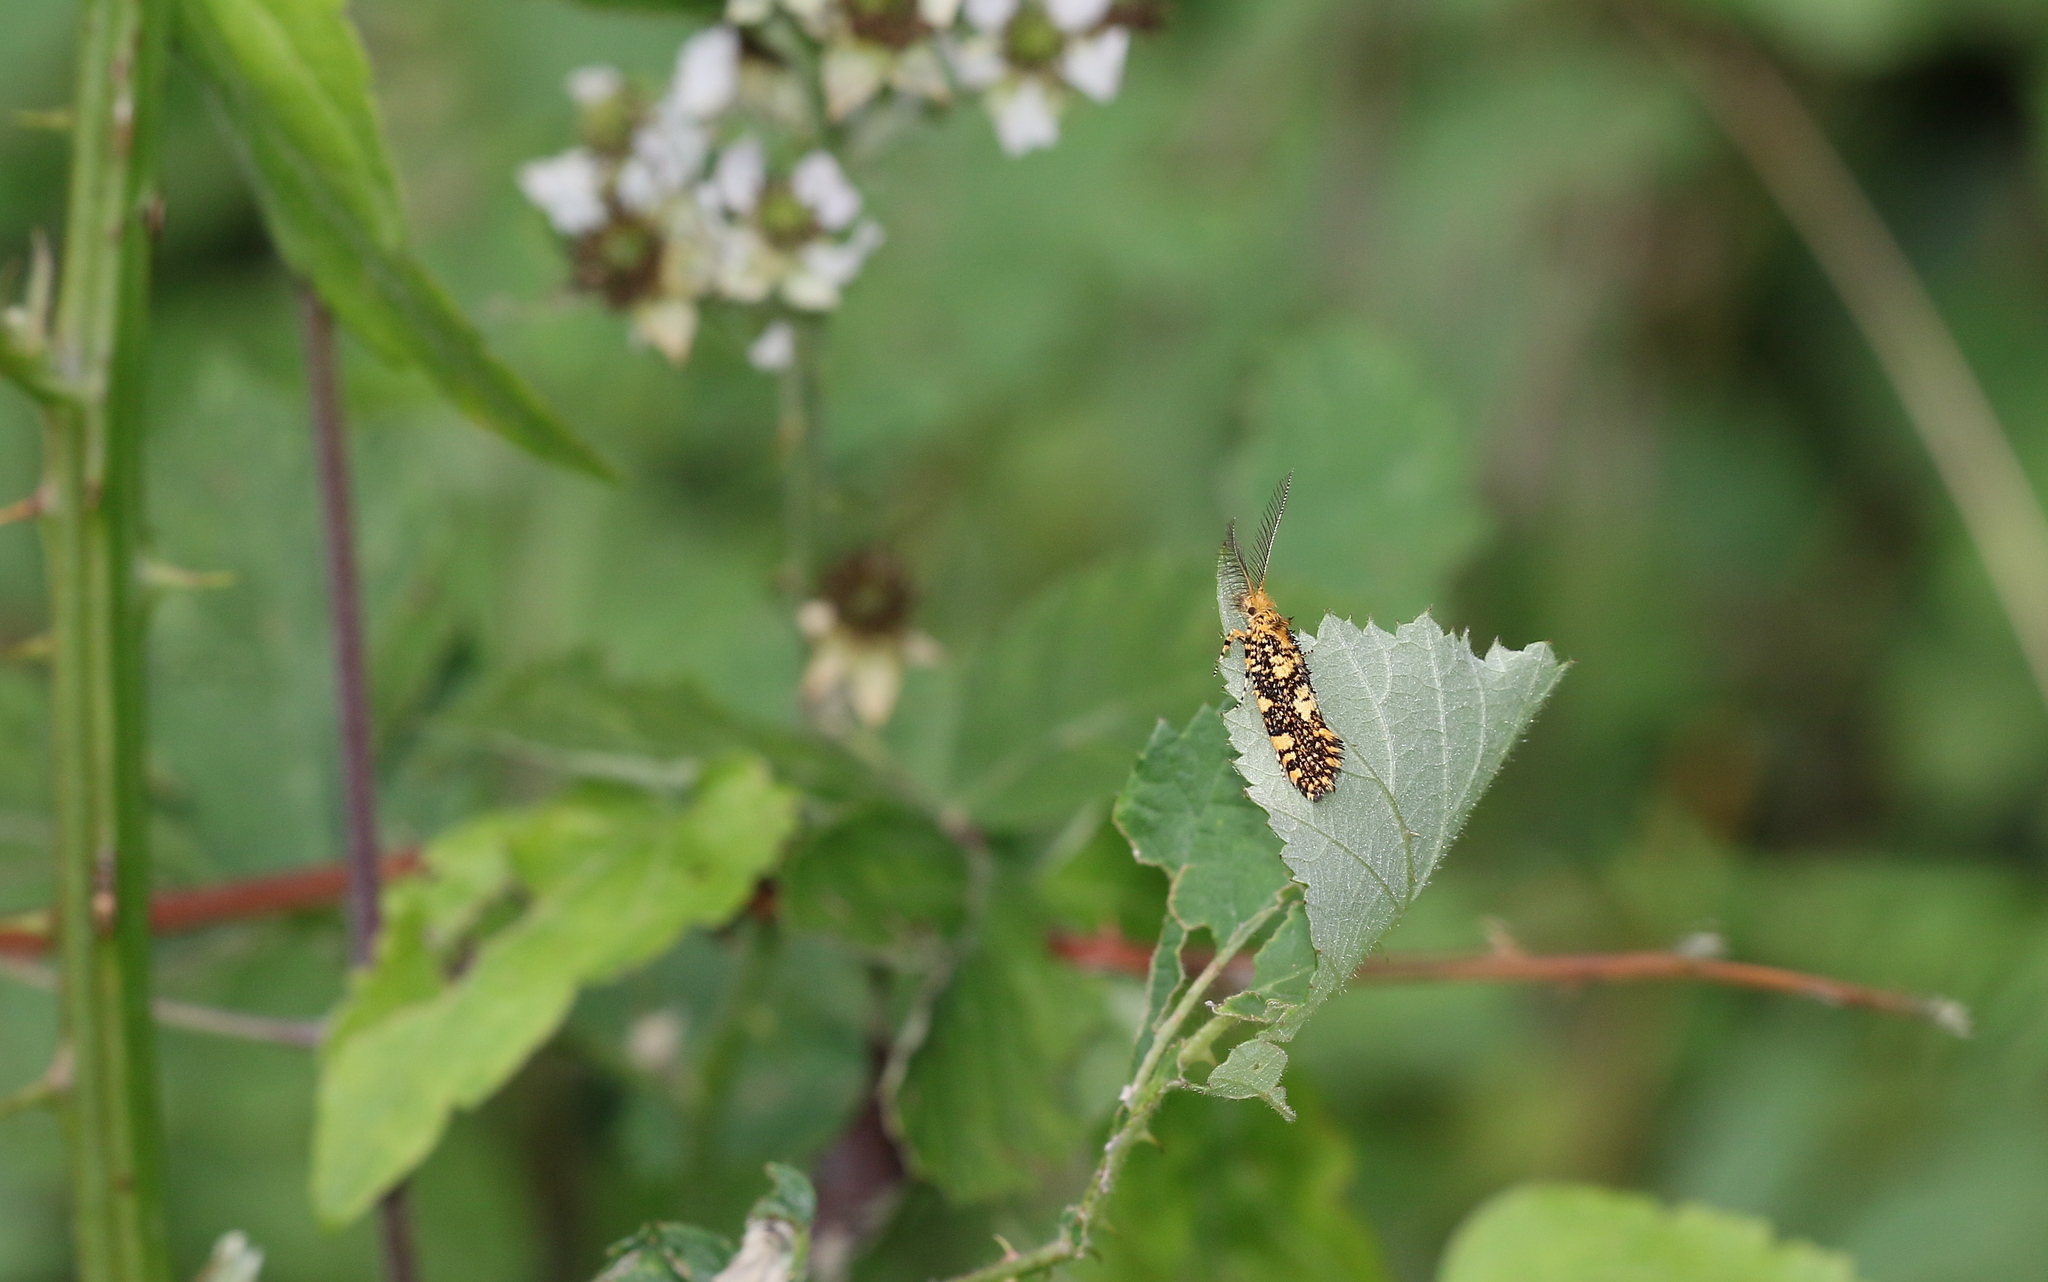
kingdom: Animalia
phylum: Arthropoda
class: Insecta
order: Lepidoptera
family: Tineidae
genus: Euplocamus
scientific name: Euplocamus ophisa
